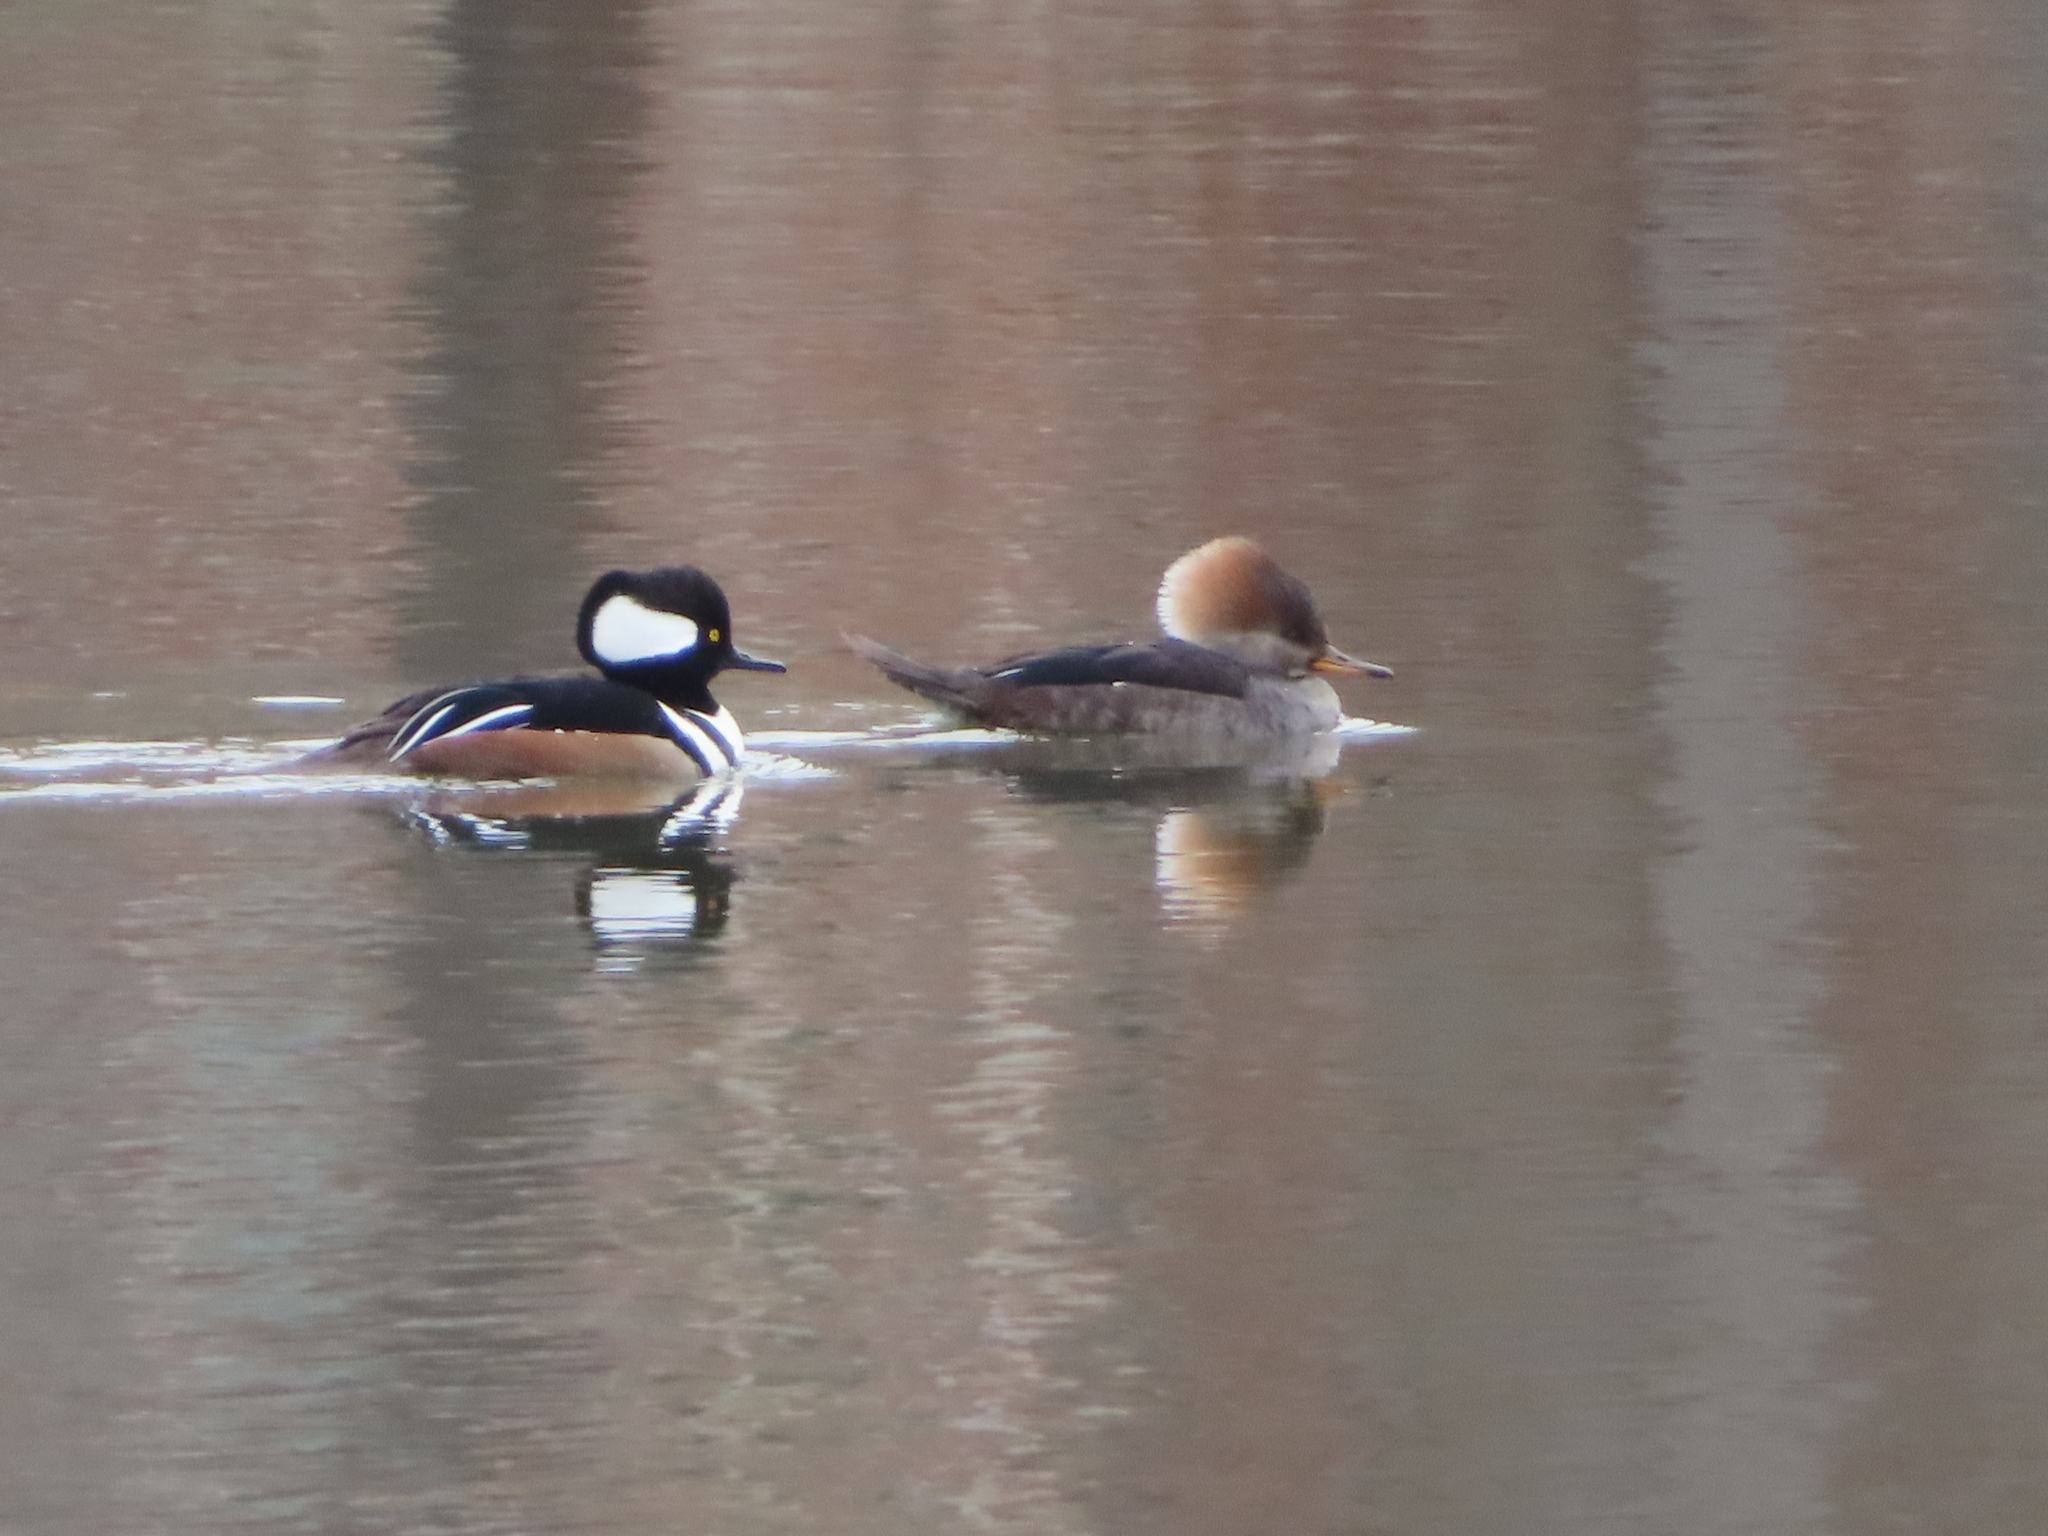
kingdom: Animalia
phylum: Chordata
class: Aves
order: Anseriformes
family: Anatidae
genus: Lophodytes
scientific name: Lophodytes cucullatus
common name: Hooded merganser
